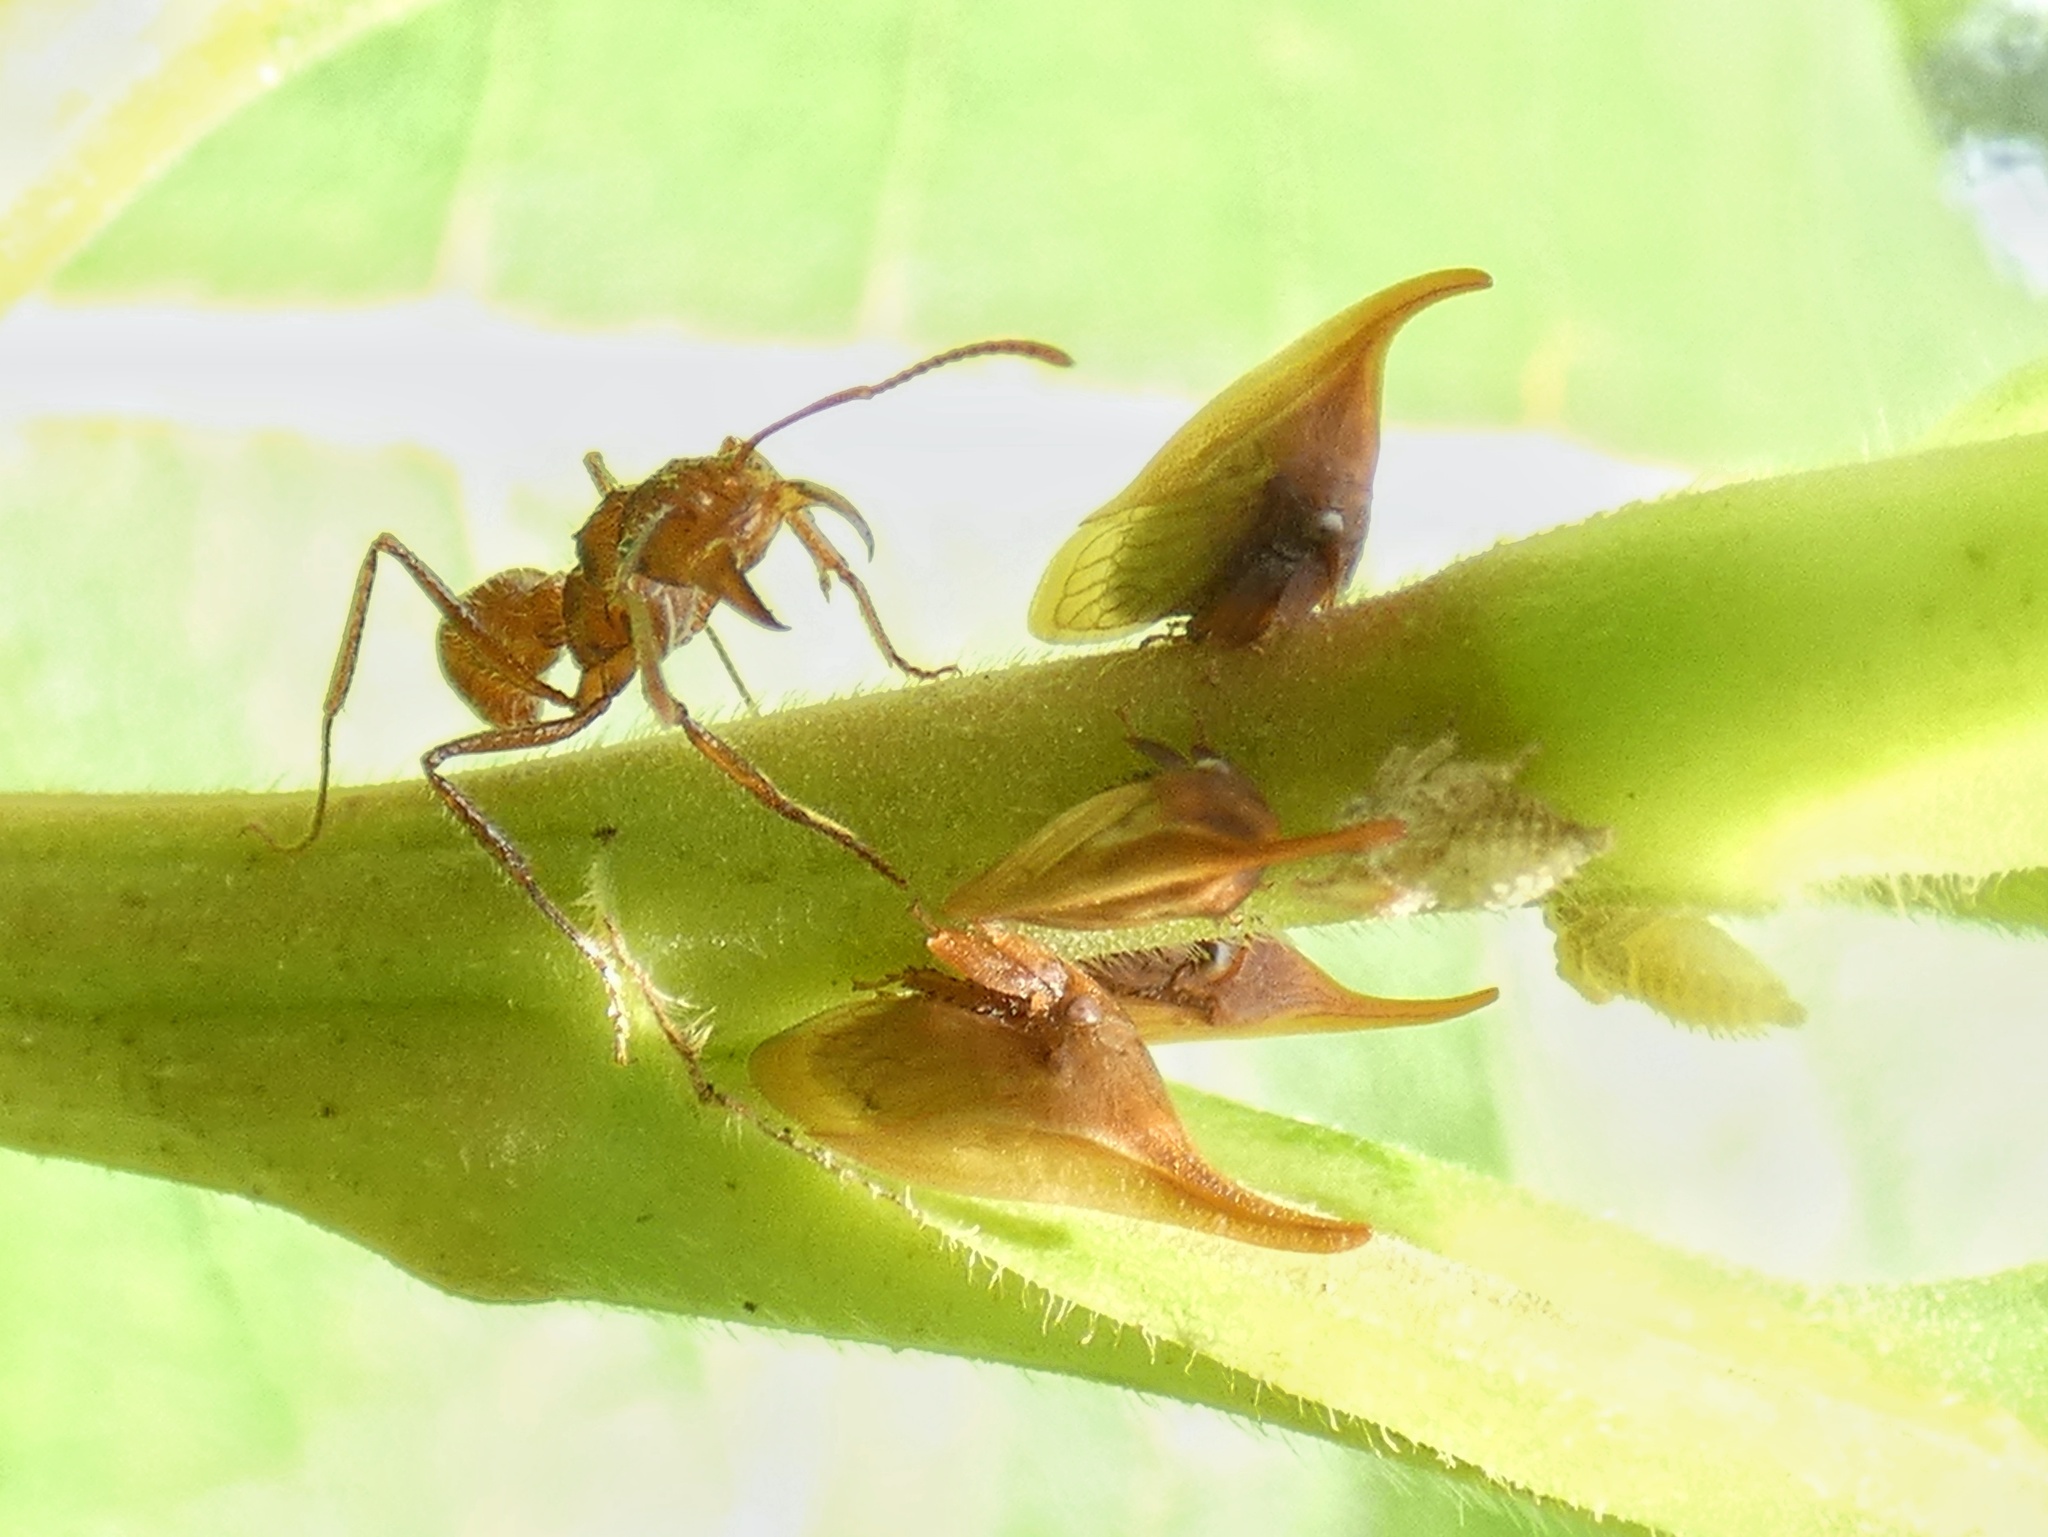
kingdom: Animalia
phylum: Arthropoda
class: Insecta
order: Hemiptera
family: Membracidae
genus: Enchenopa
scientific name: Enchenopa squamigera
